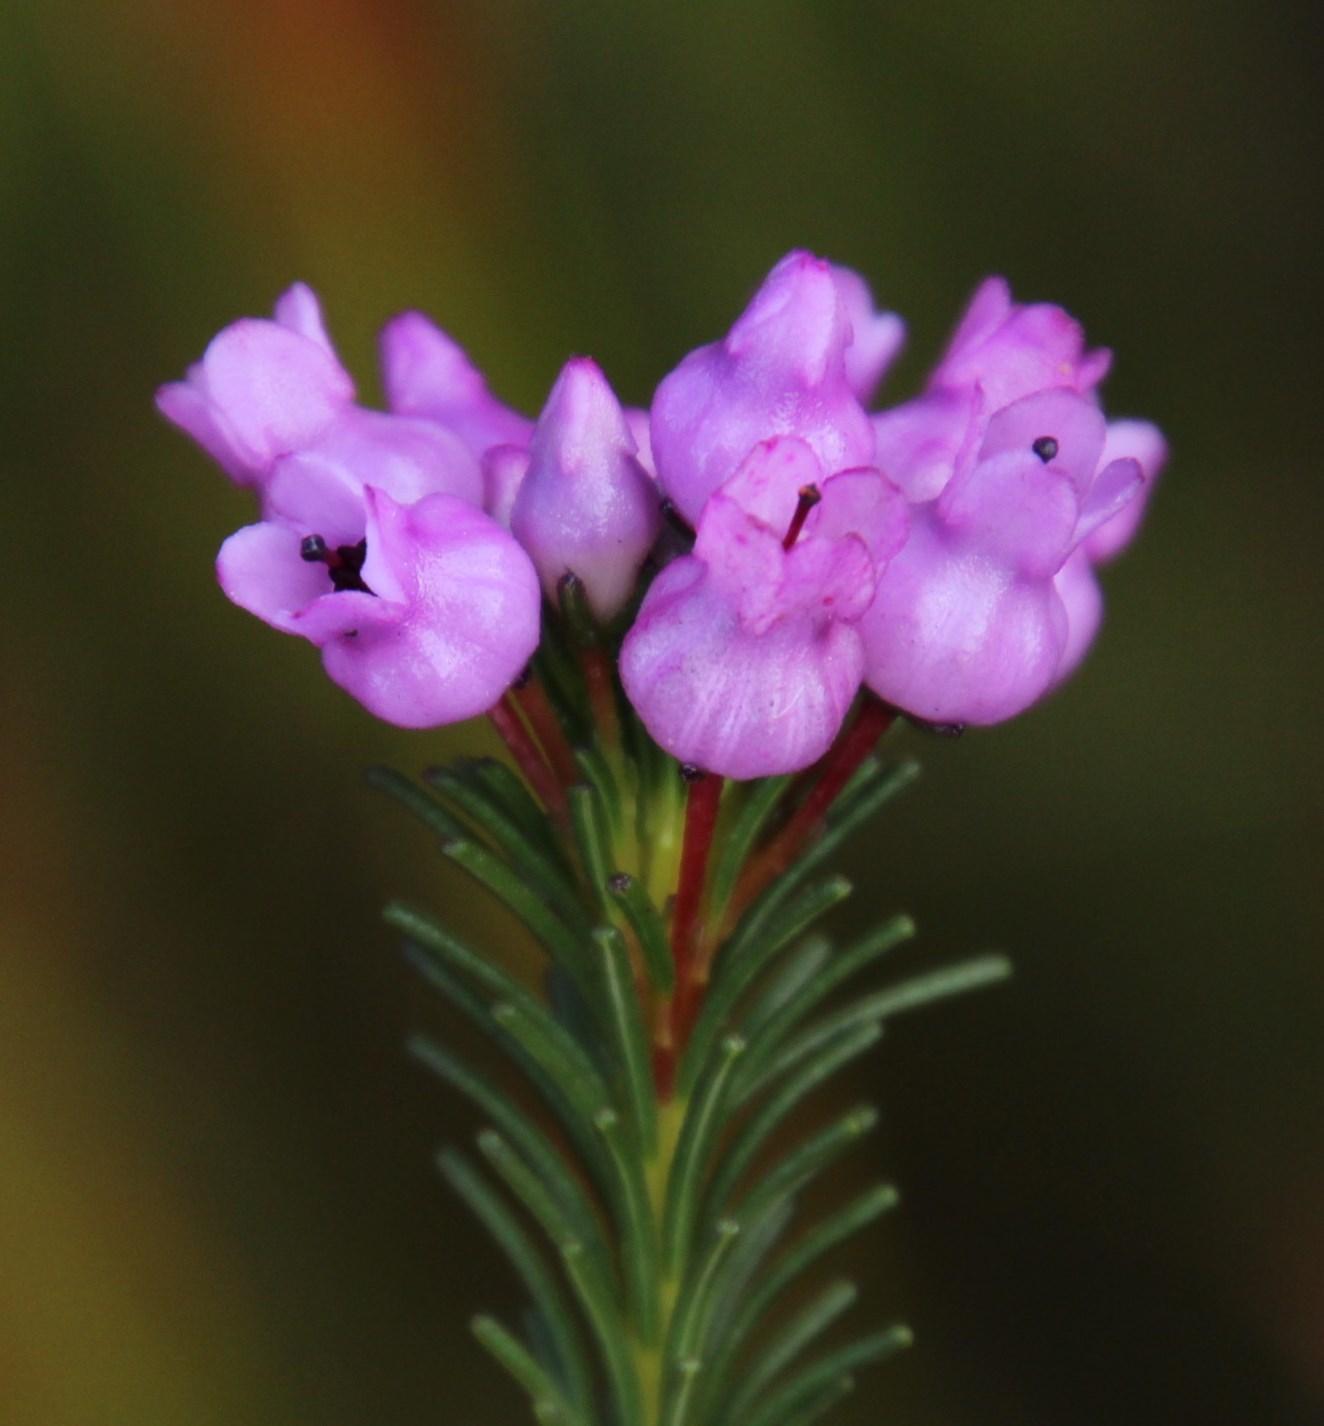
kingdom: Plantae
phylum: Tracheophyta
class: Magnoliopsida
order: Ericales
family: Ericaceae
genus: Erica
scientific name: Erica obliqua
